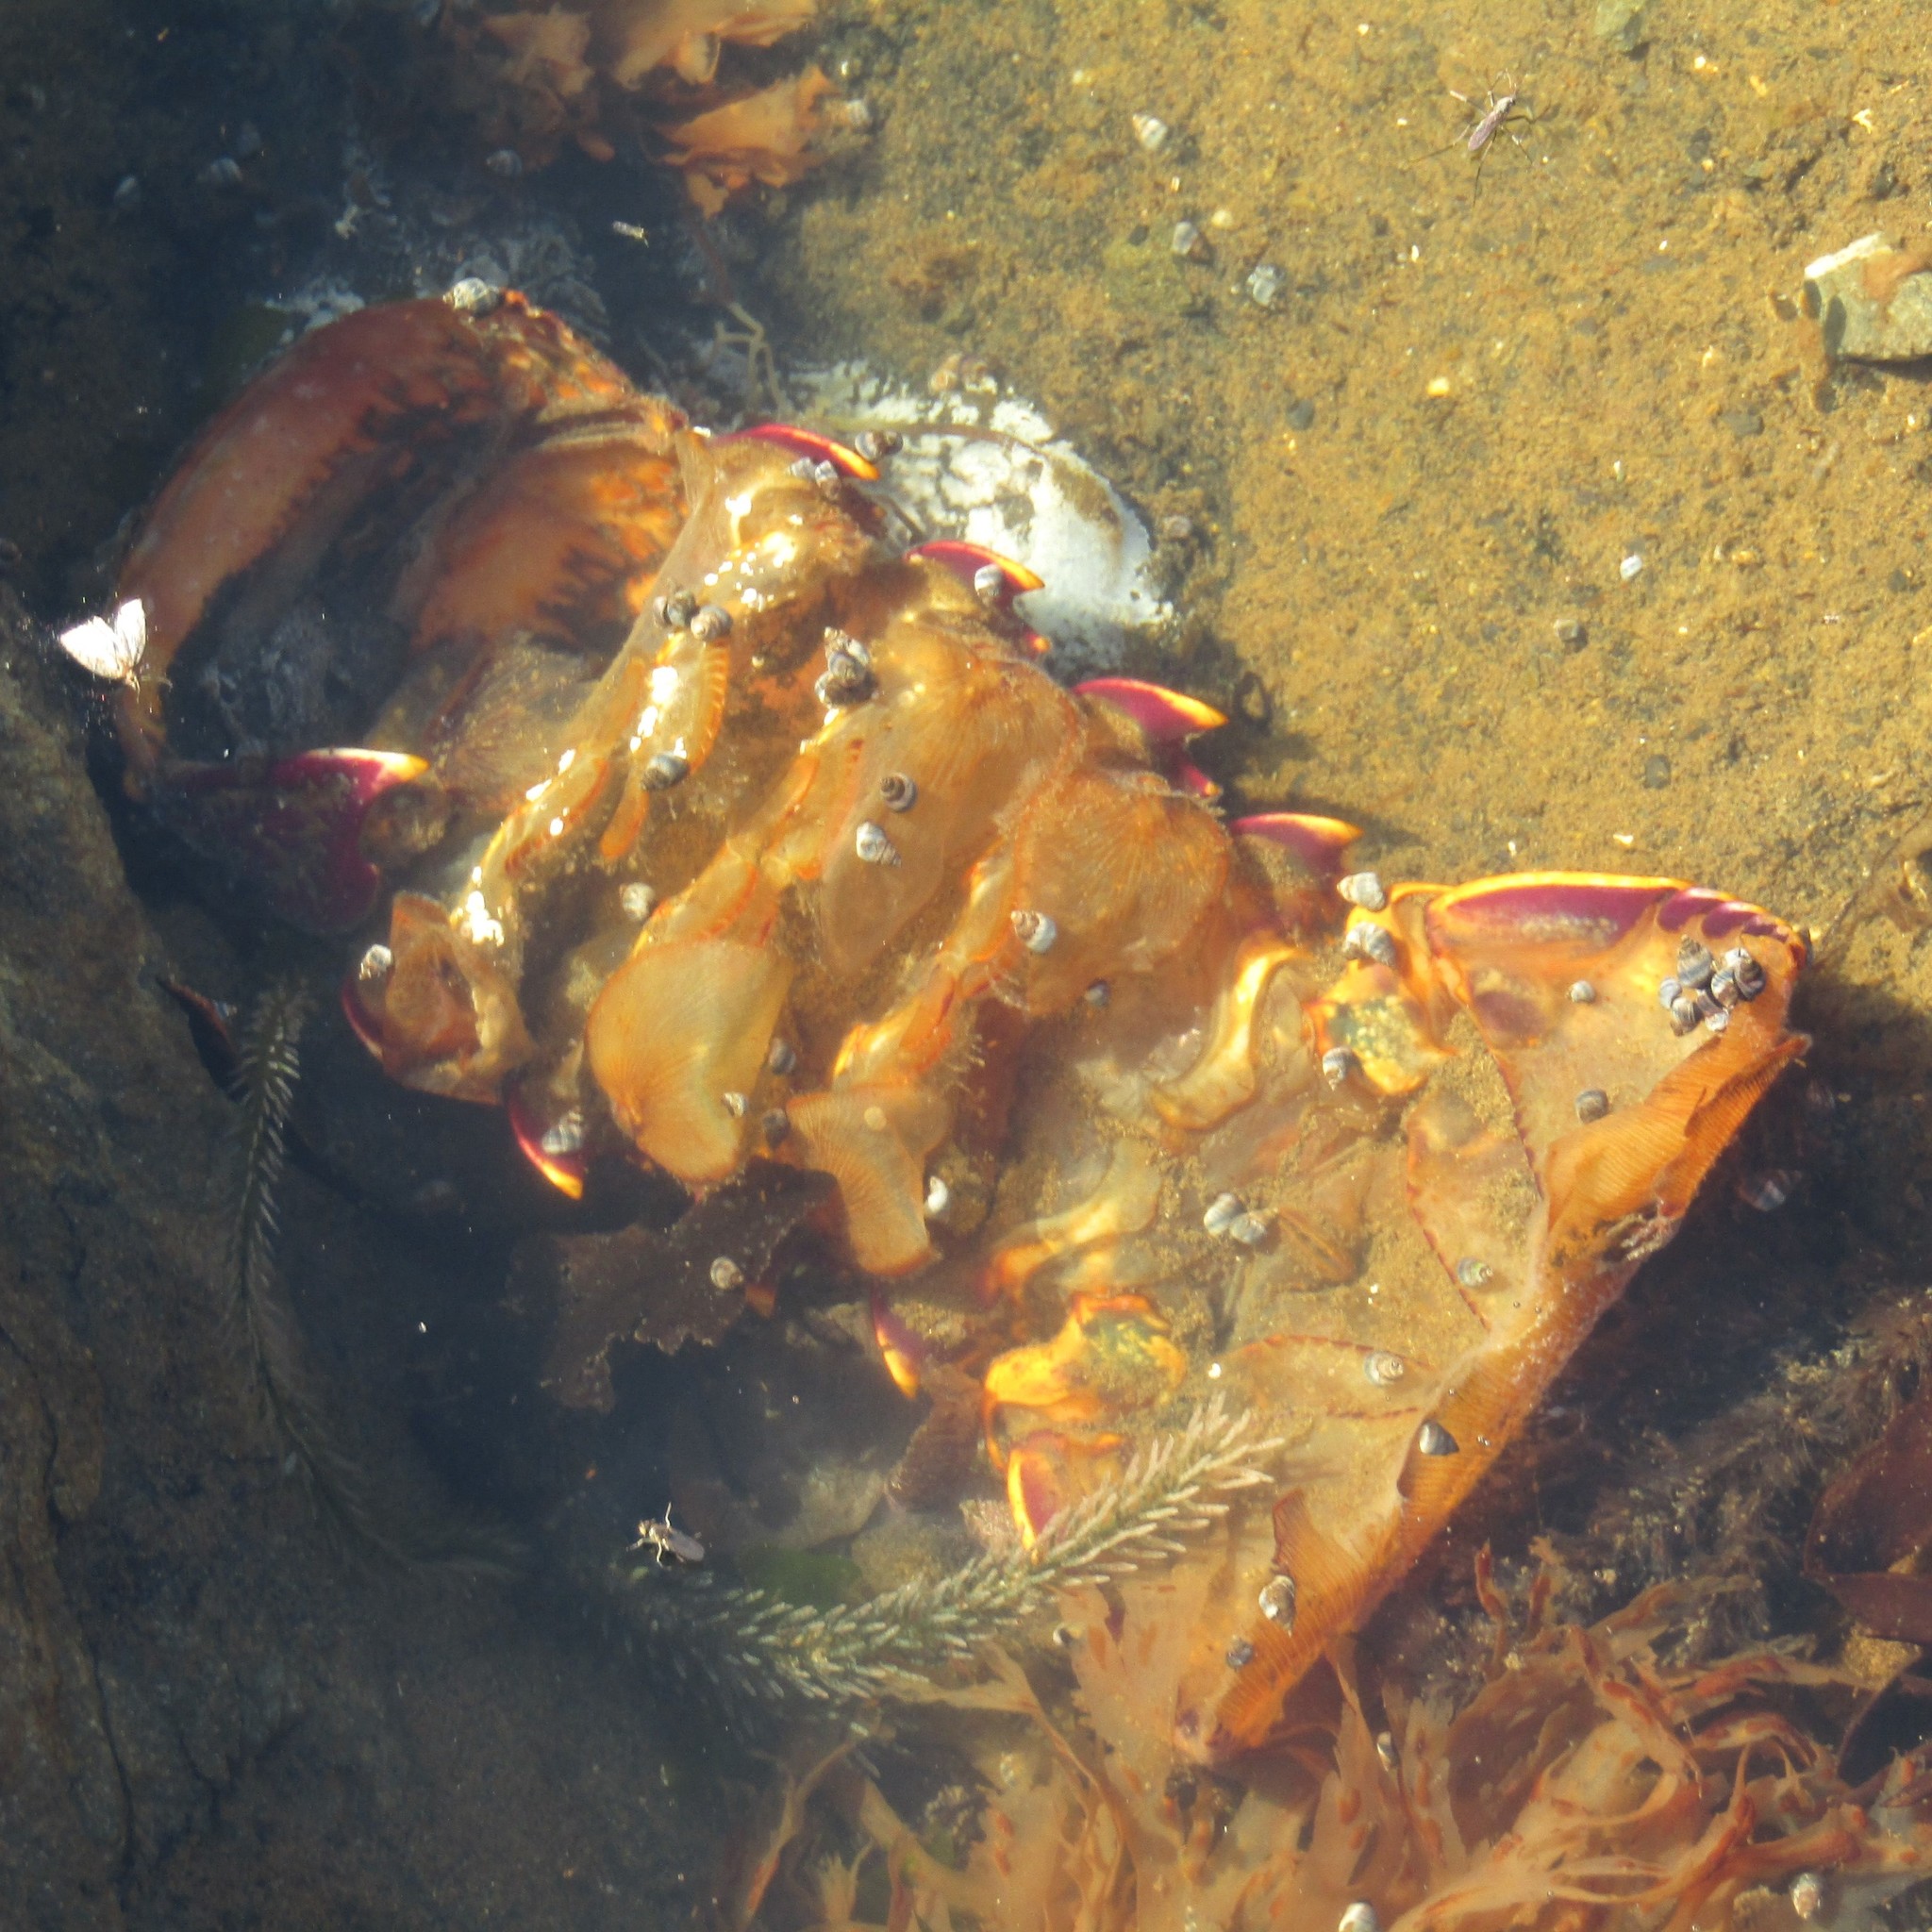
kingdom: Animalia
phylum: Arthropoda
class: Malacostraca
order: Decapoda
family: Palinuridae
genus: Jasus
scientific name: Jasus edwardsii
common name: Red rock lobster
